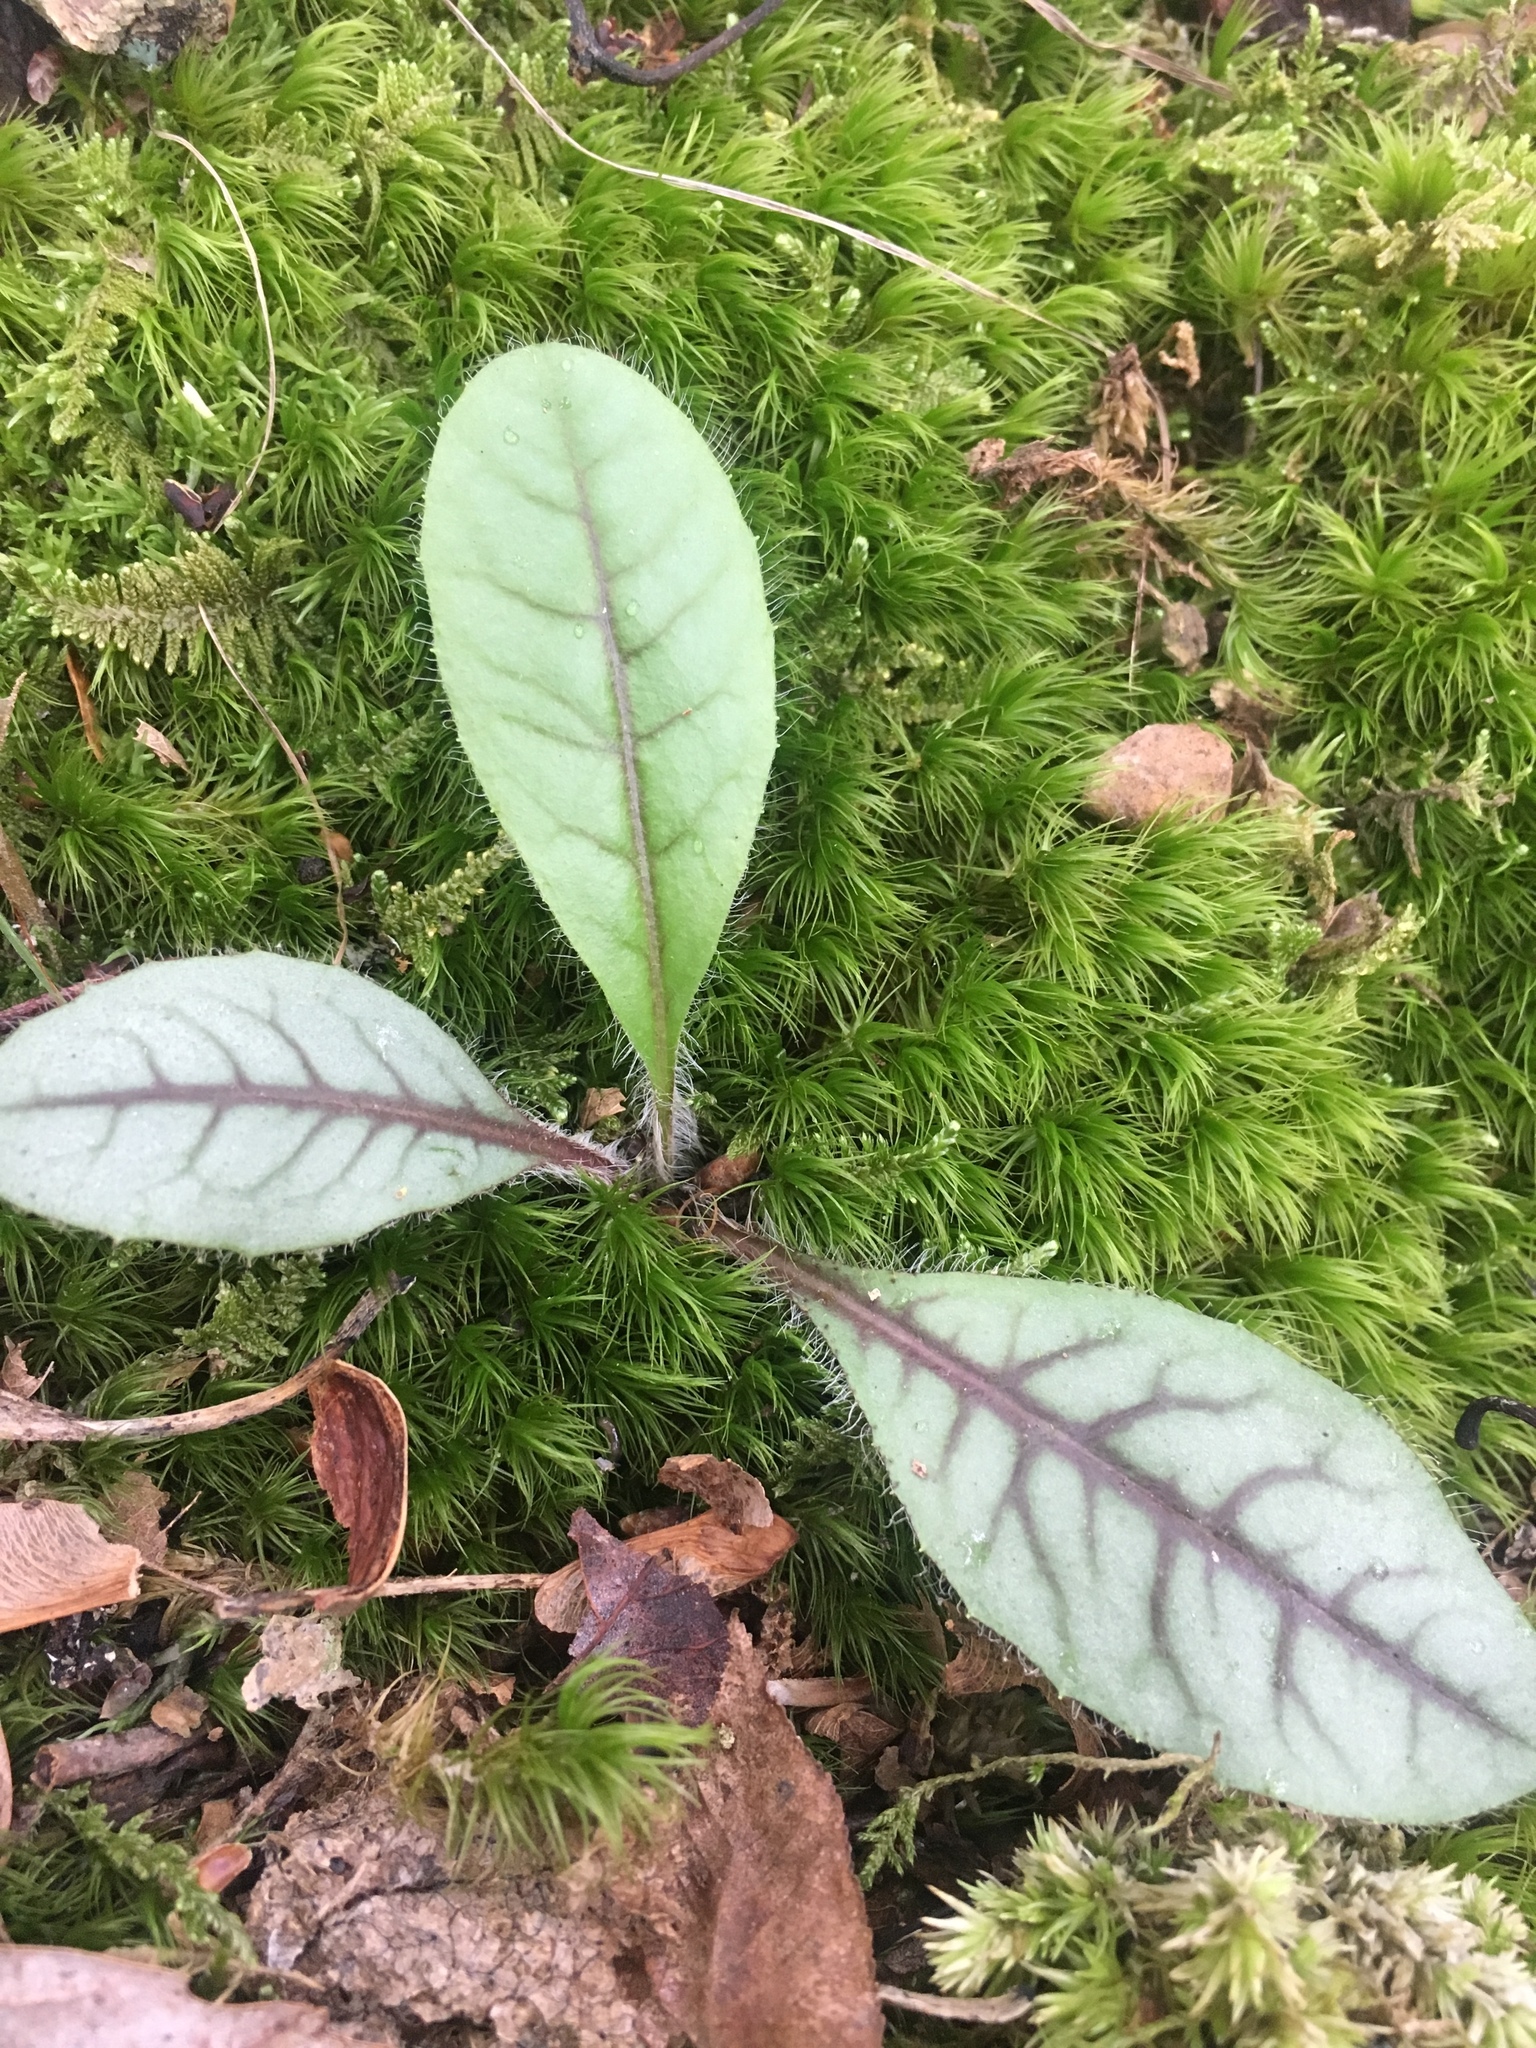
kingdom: Plantae
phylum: Tracheophyta
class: Magnoliopsida
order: Asterales
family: Asteraceae
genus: Hieracium
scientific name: Hieracium venosum
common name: Rattlesnake hawkweed
